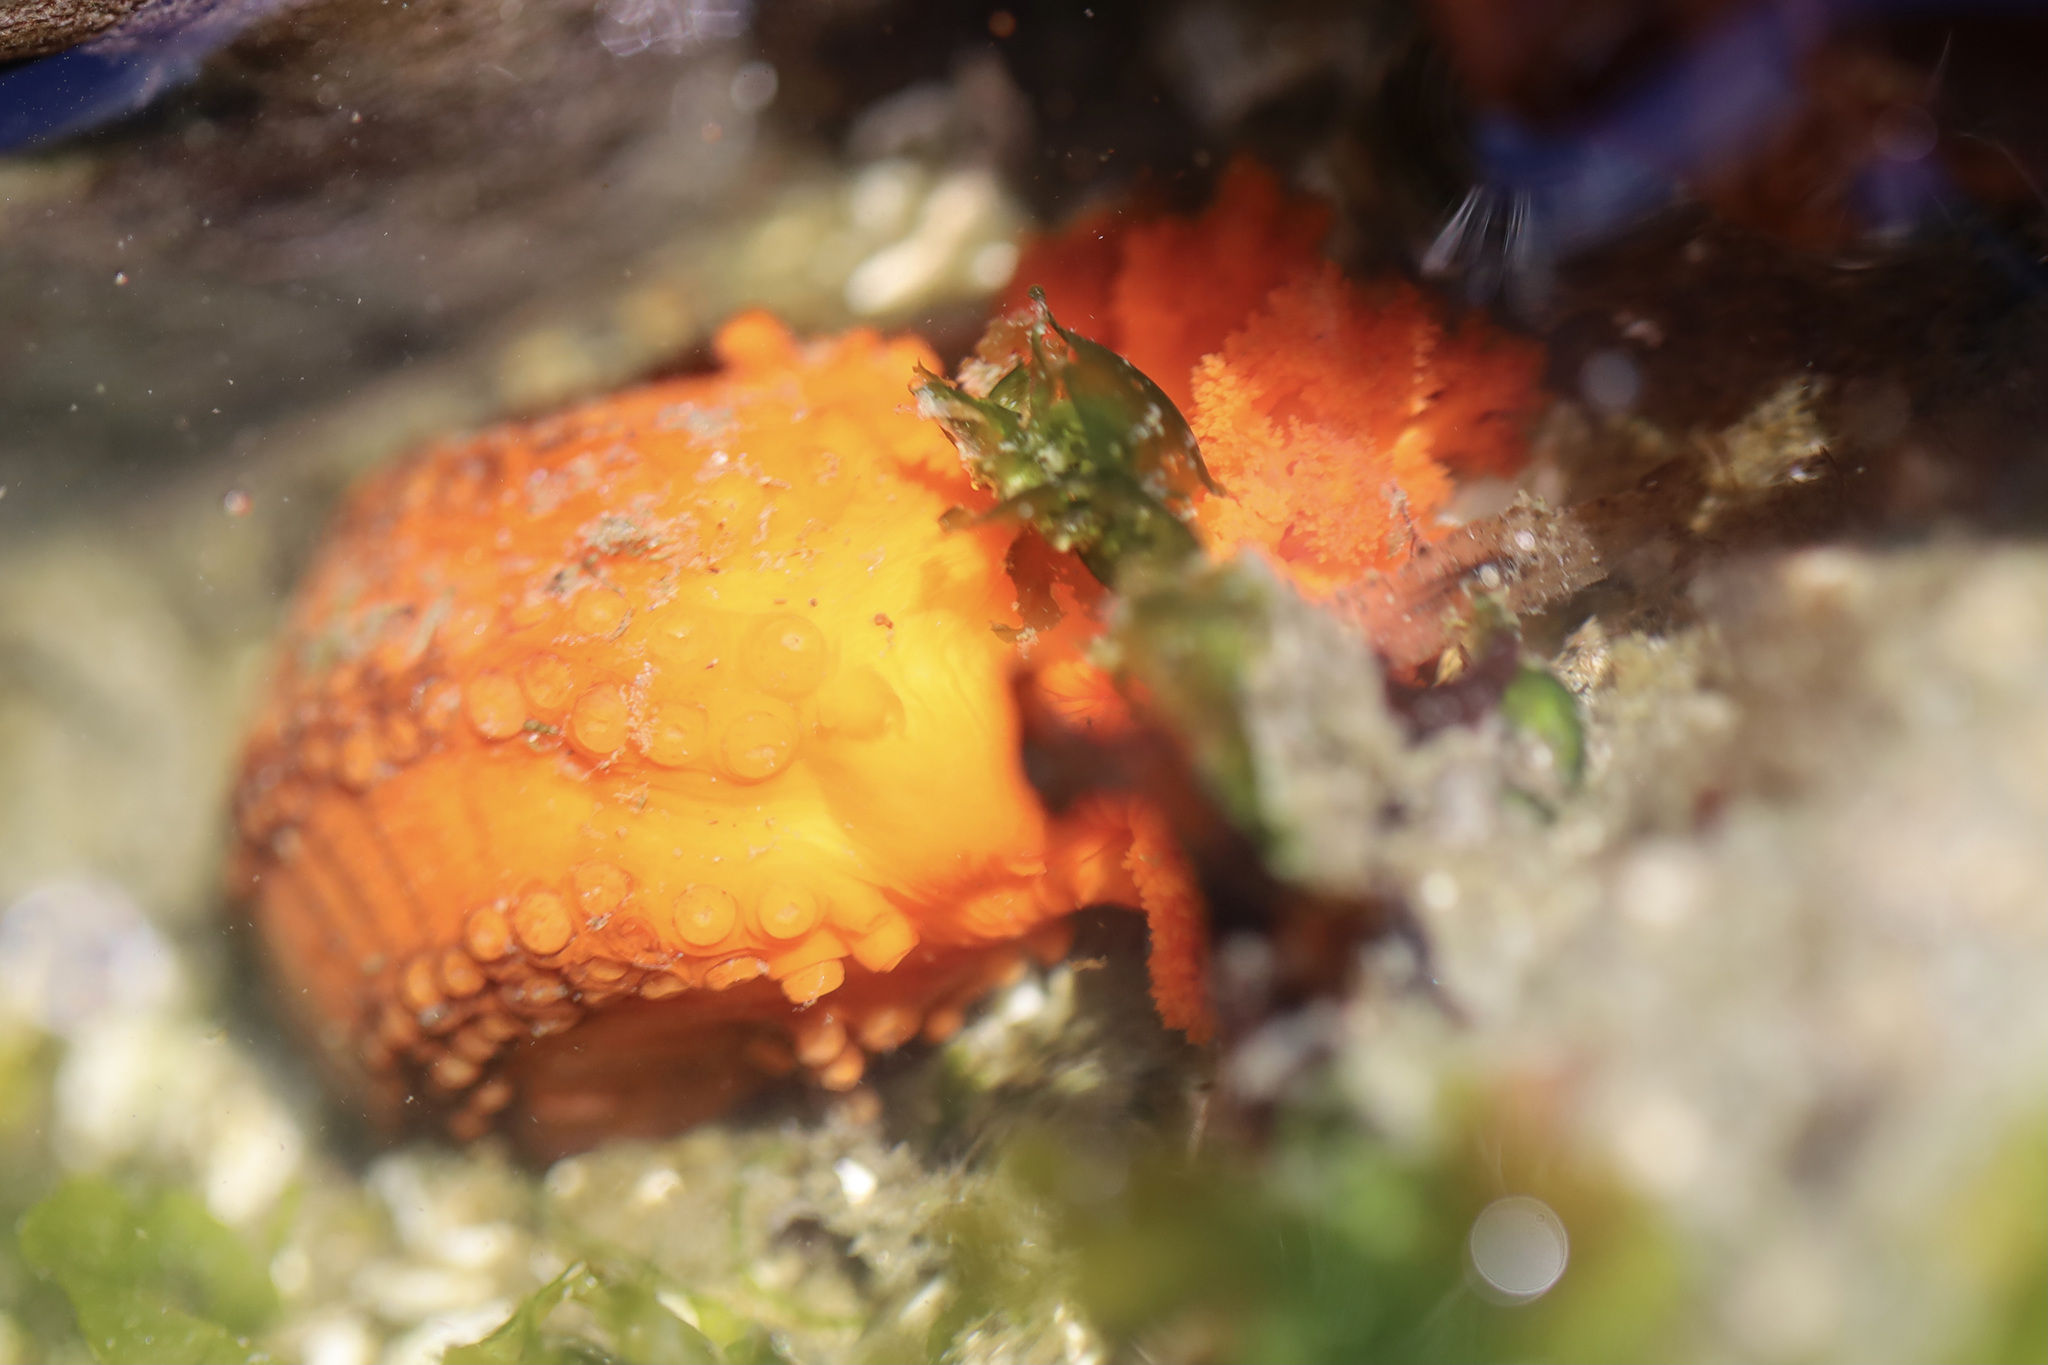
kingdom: Animalia
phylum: Echinodermata
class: Holothuroidea
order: Dendrochirotida
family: Cucumariidae
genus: Cucumaria
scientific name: Cucumaria miniata
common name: Orange sea cucumber
